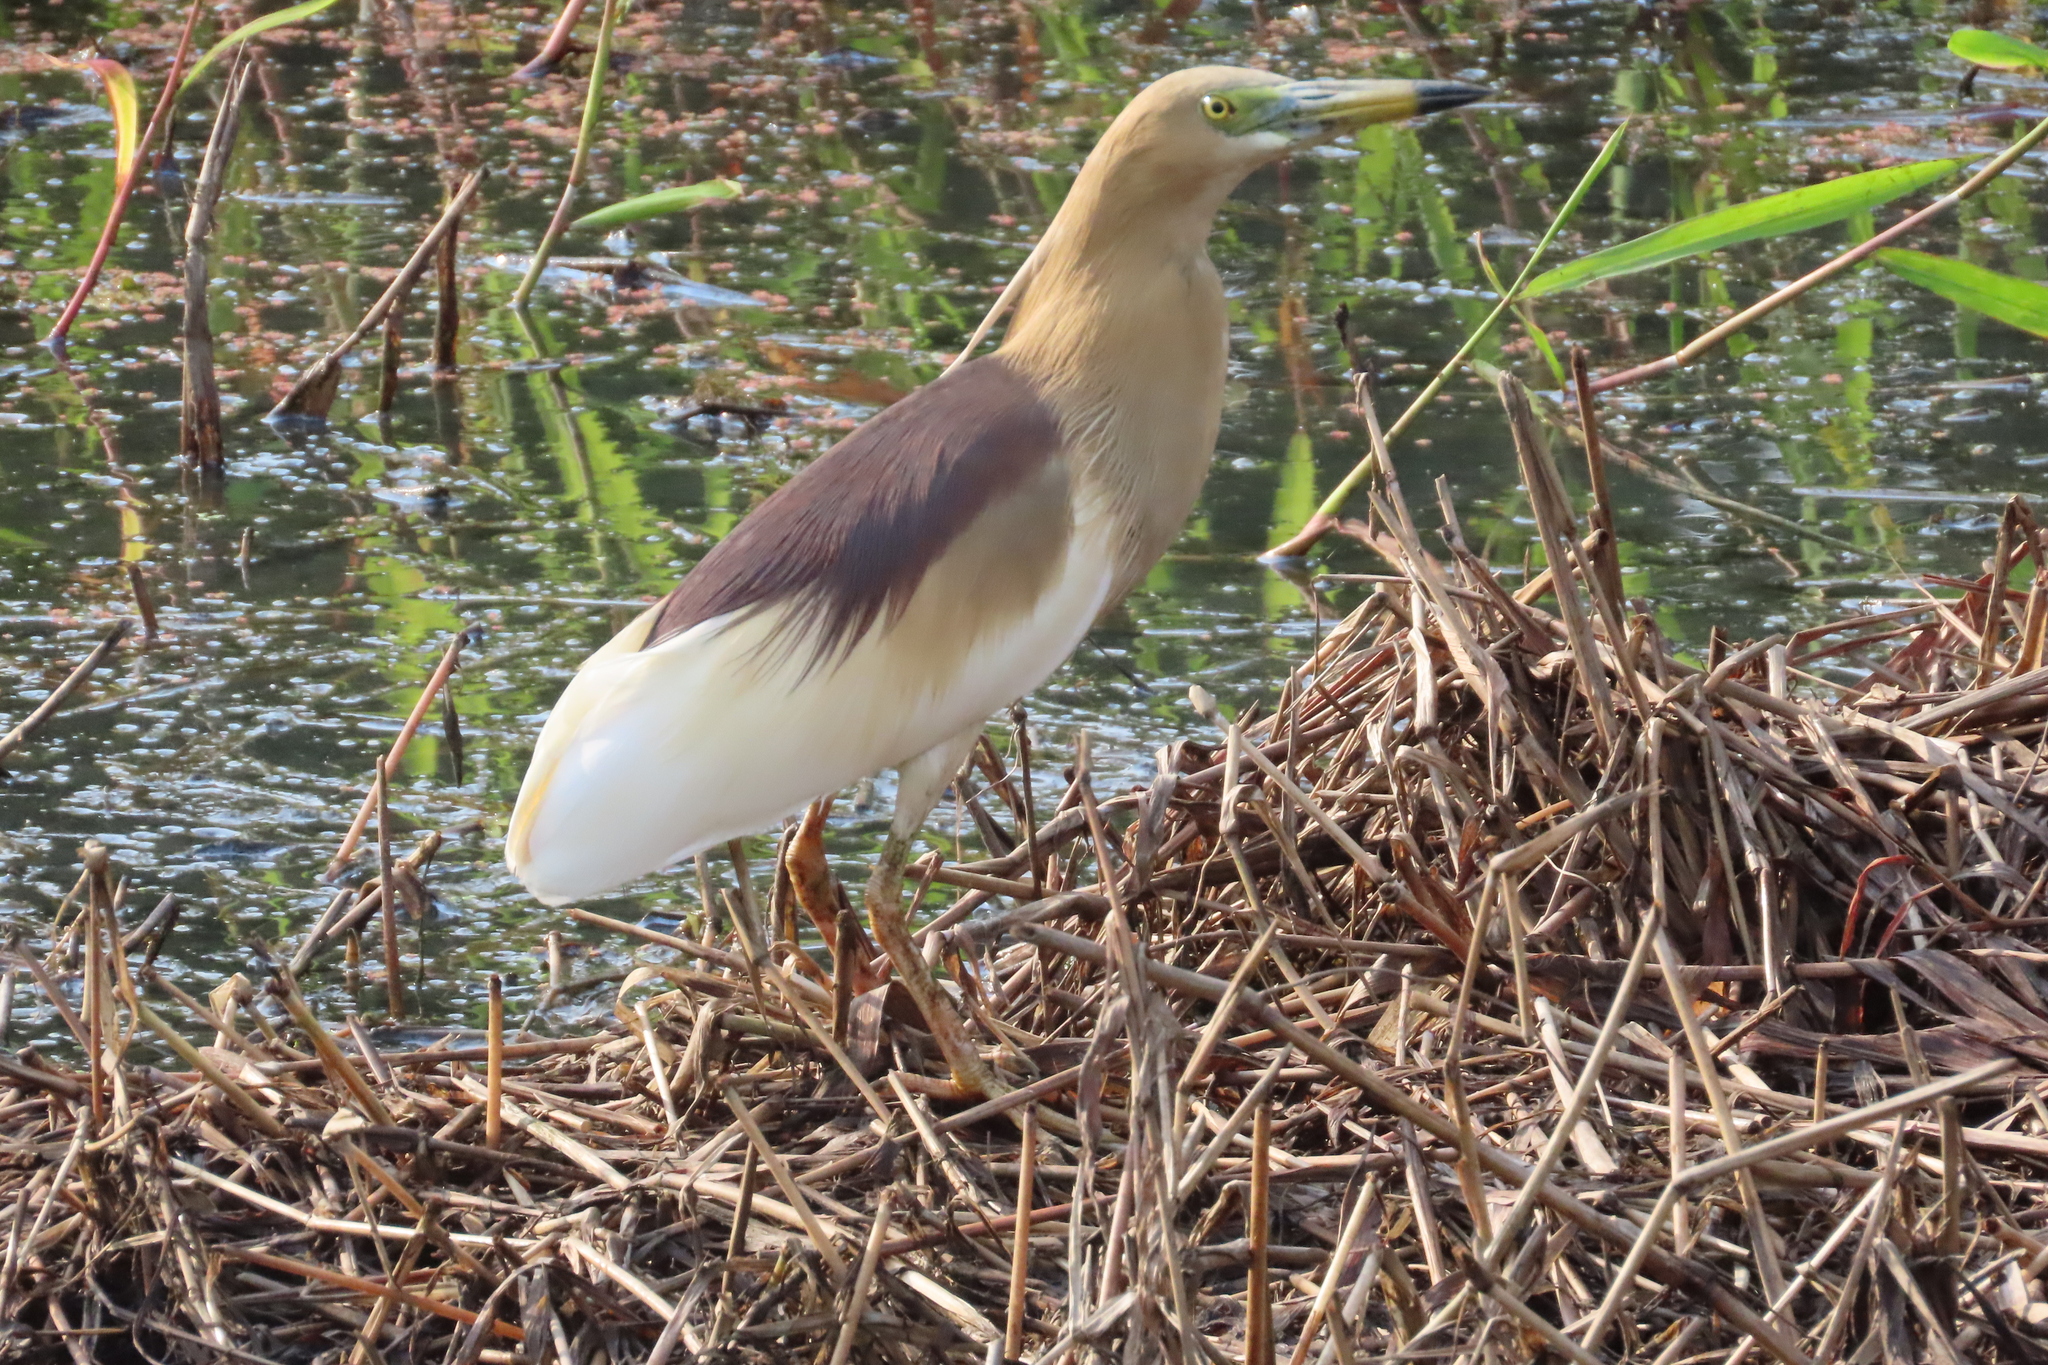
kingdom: Animalia
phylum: Chordata
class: Aves
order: Pelecaniformes
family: Ardeidae
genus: Ardeola
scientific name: Ardeola grayii
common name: Indian pond heron
